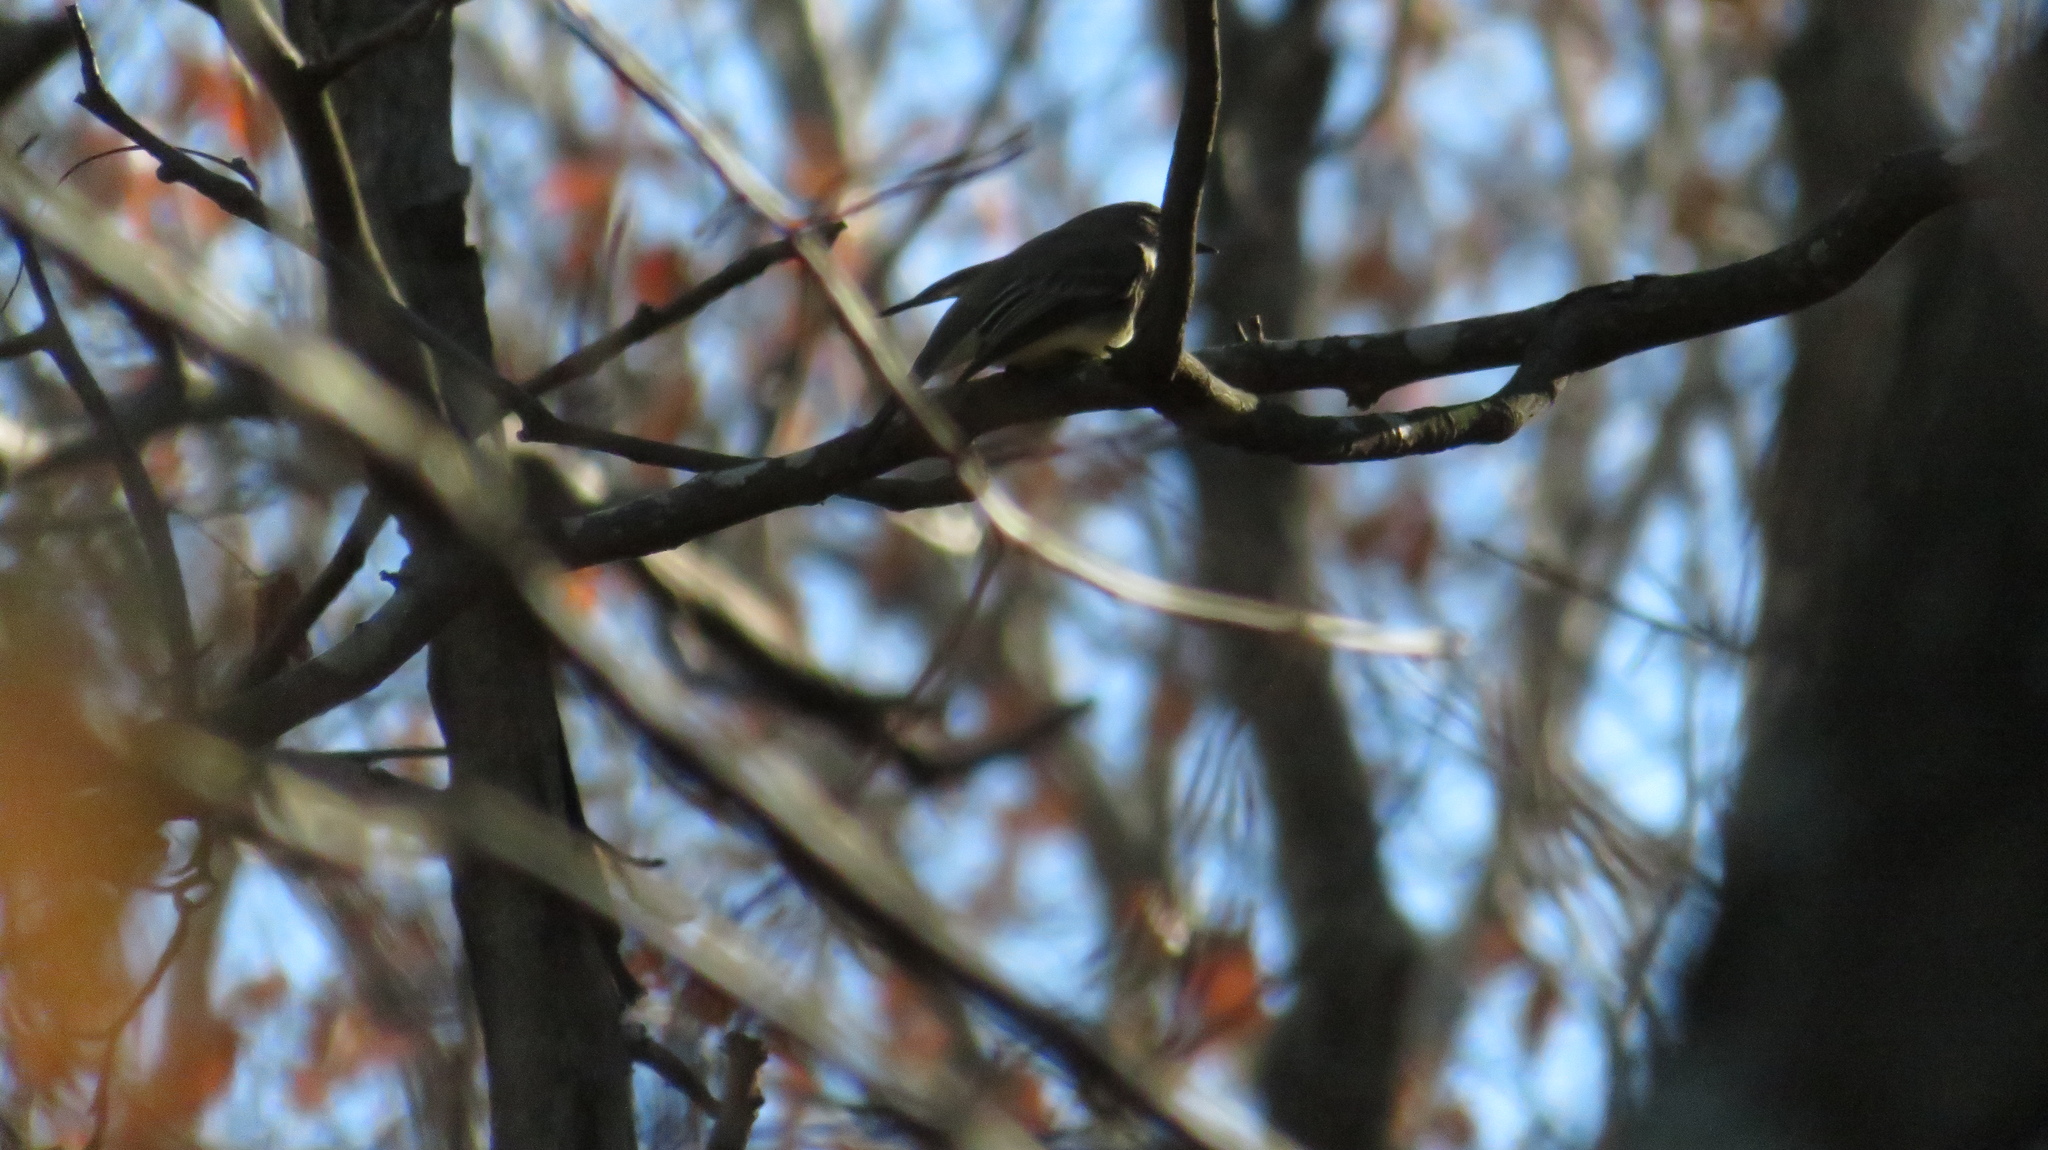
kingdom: Animalia
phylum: Chordata
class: Aves
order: Passeriformes
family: Tyrannidae
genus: Sayornis
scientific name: Sayornis phoebe
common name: Eastern phoebe
